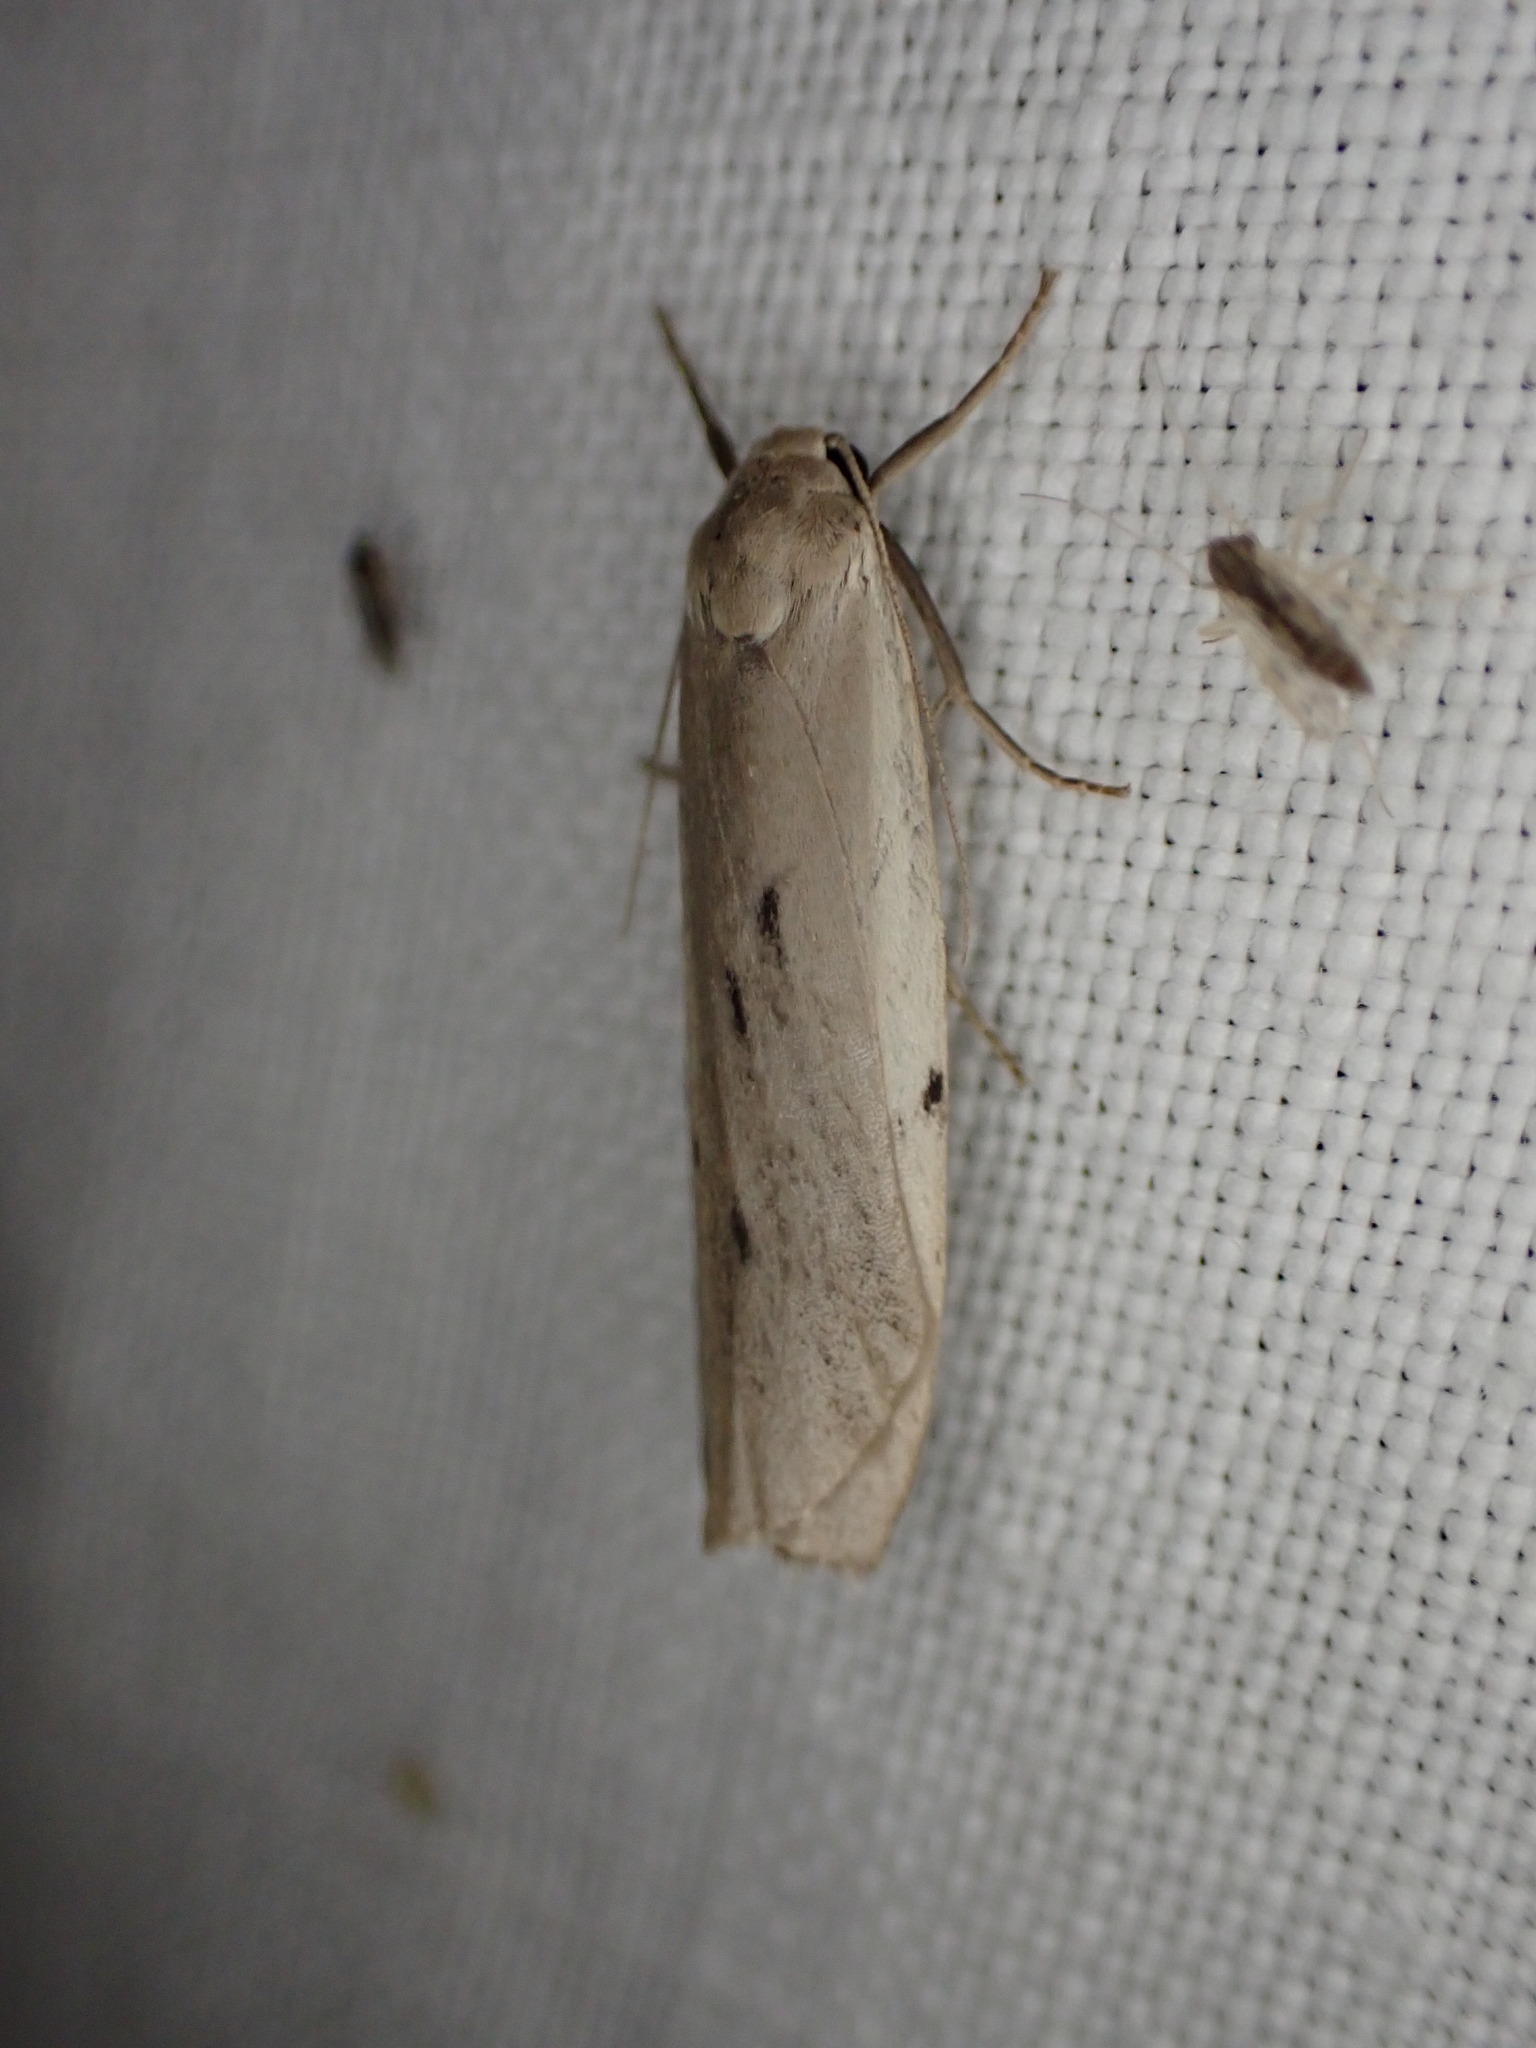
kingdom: Animalia
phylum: Arthropoda
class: Insecta
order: Lepidoptera
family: Erebidae
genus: Pelosia
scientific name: Pelosia muscerda
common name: Dotted footman
